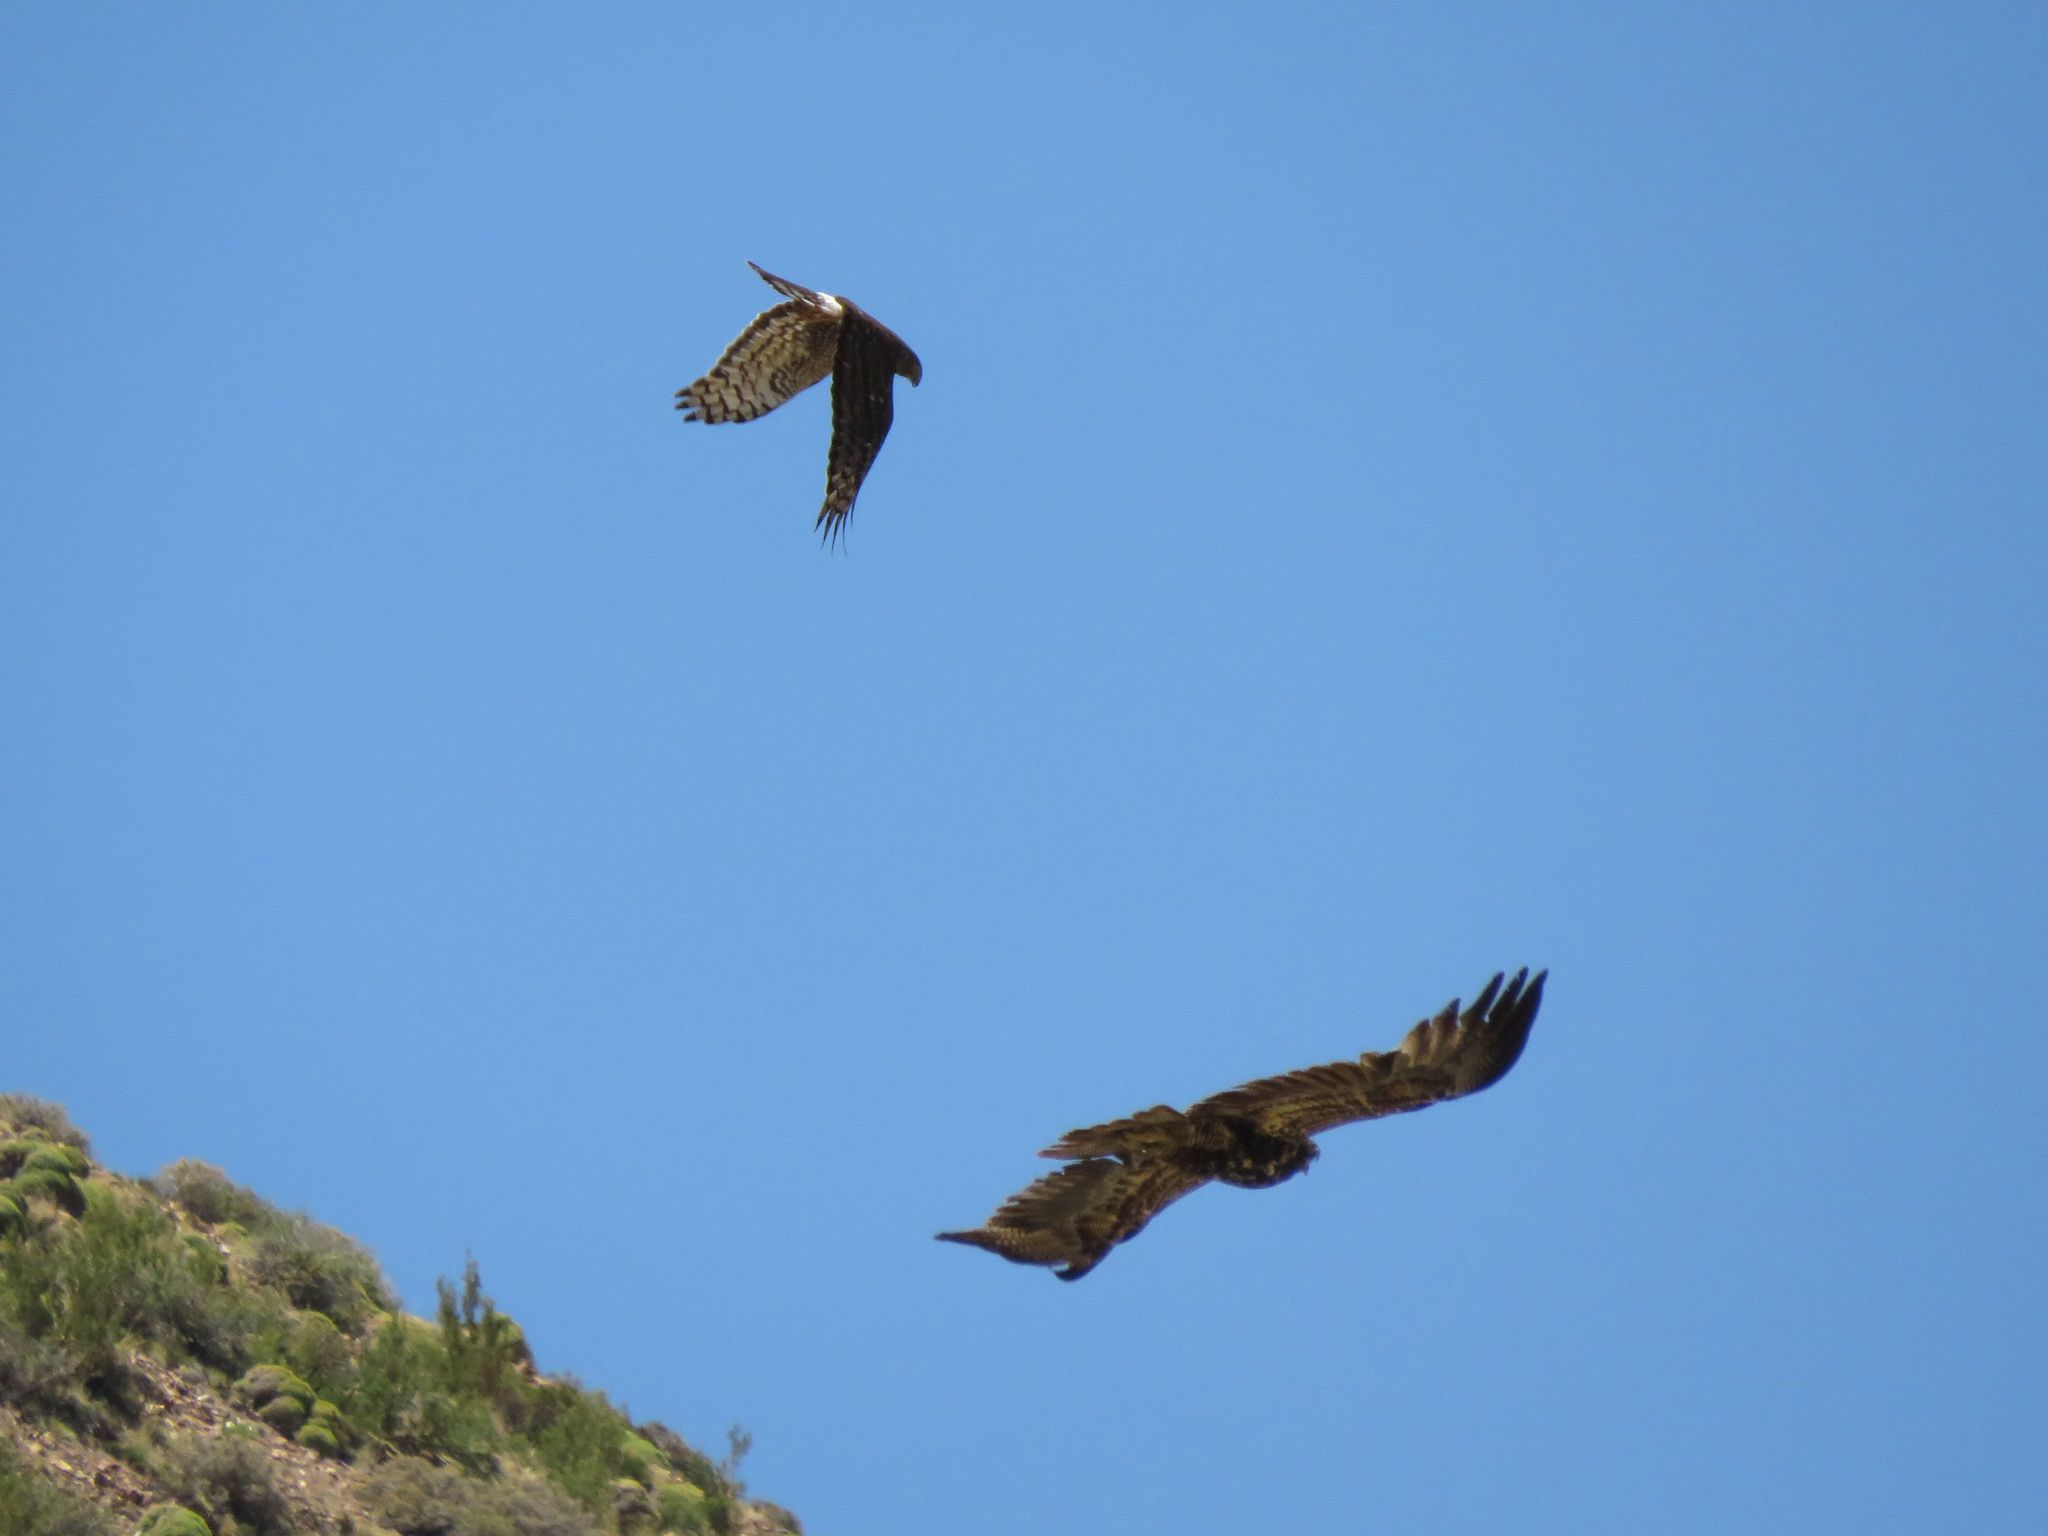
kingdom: Animalia
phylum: Chordata
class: Aves
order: Accipitriformes
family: Accipitridae
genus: Circus
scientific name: Circus cinereus
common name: Cinereous harrier
